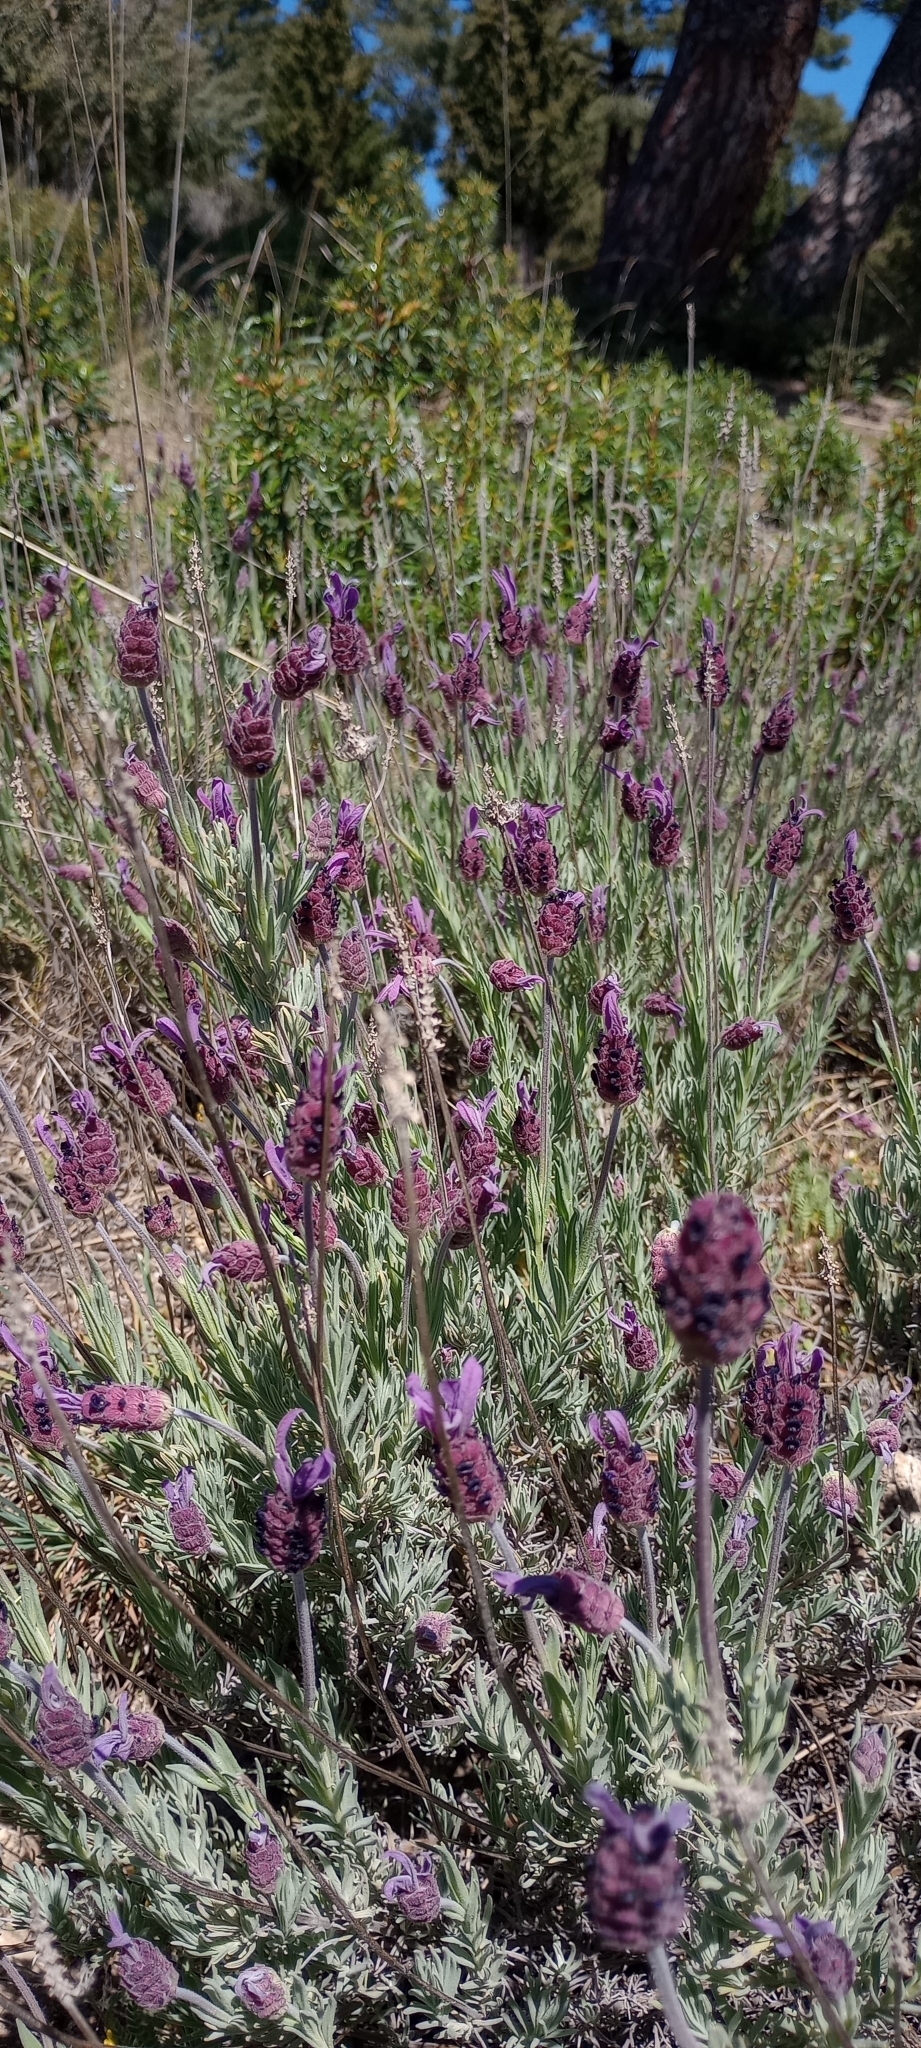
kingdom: Plantae
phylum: Tracheophyta
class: Magnoliopsida
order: Lamiales
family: Lamiaceae
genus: Lavandula
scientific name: Lavandula pedunculata
